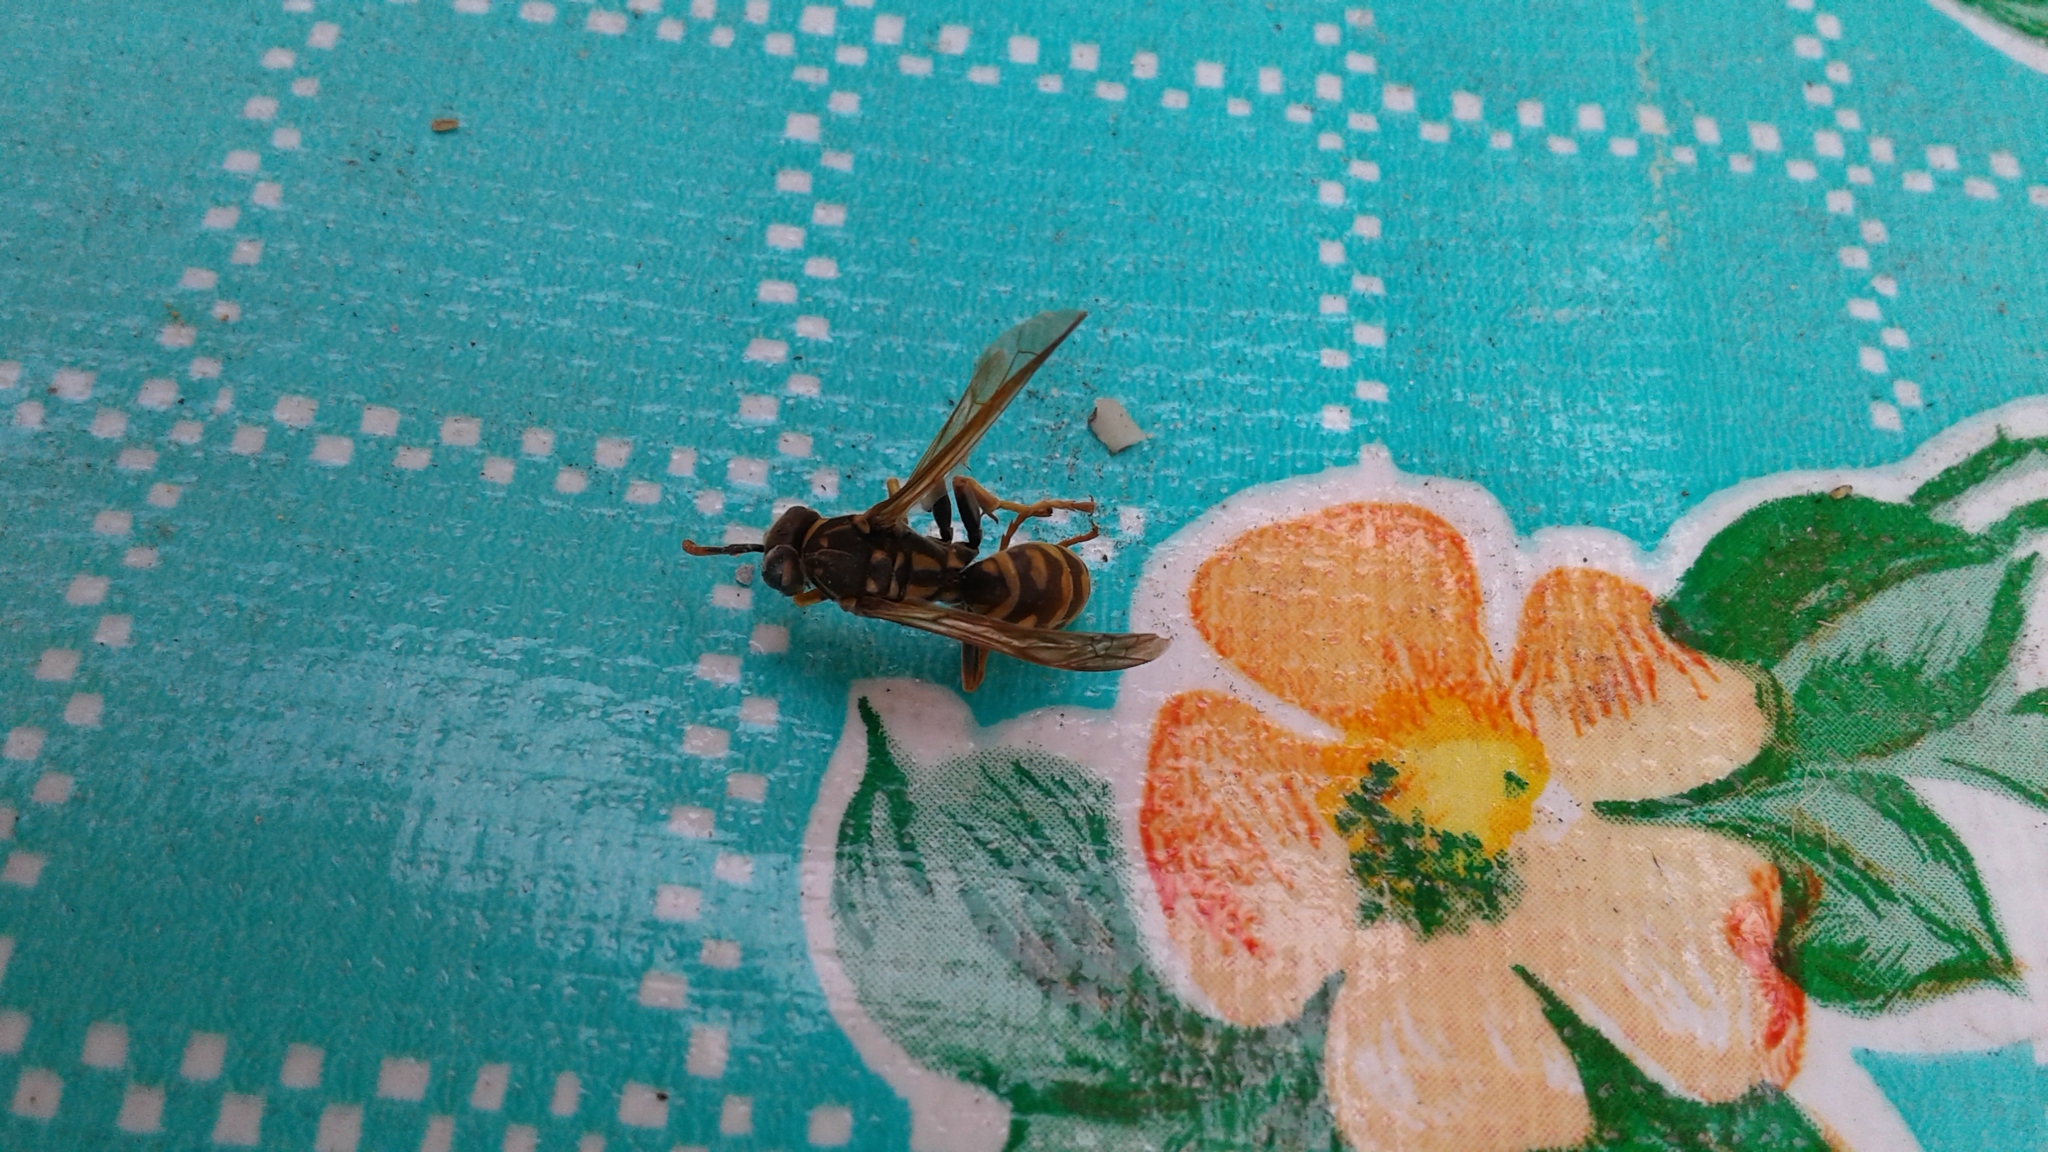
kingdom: Animalia
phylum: Arthropoda
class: Insecta
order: Hymenoptera
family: Eumenidae
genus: Polistes
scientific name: Polistes dominula
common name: Paper wasp
